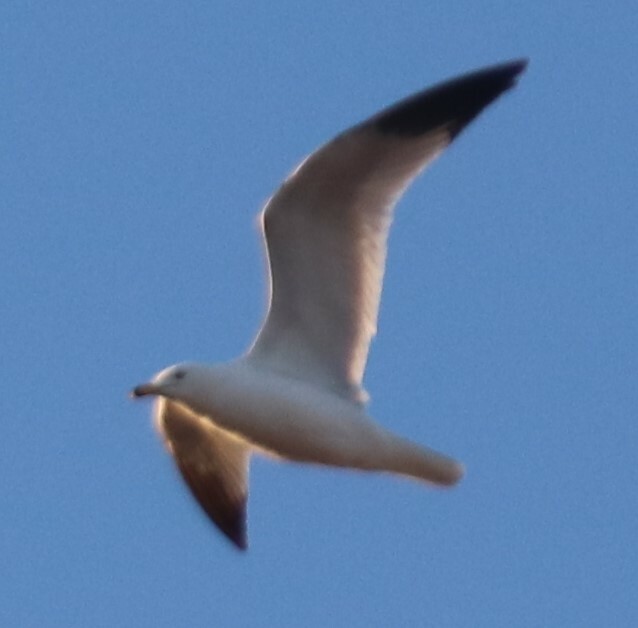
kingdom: Animalia
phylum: Chordata
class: Aves
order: Charadriiformes
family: Laridae
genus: Larus
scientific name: Larus delawarensis
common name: Ring-billed gull
